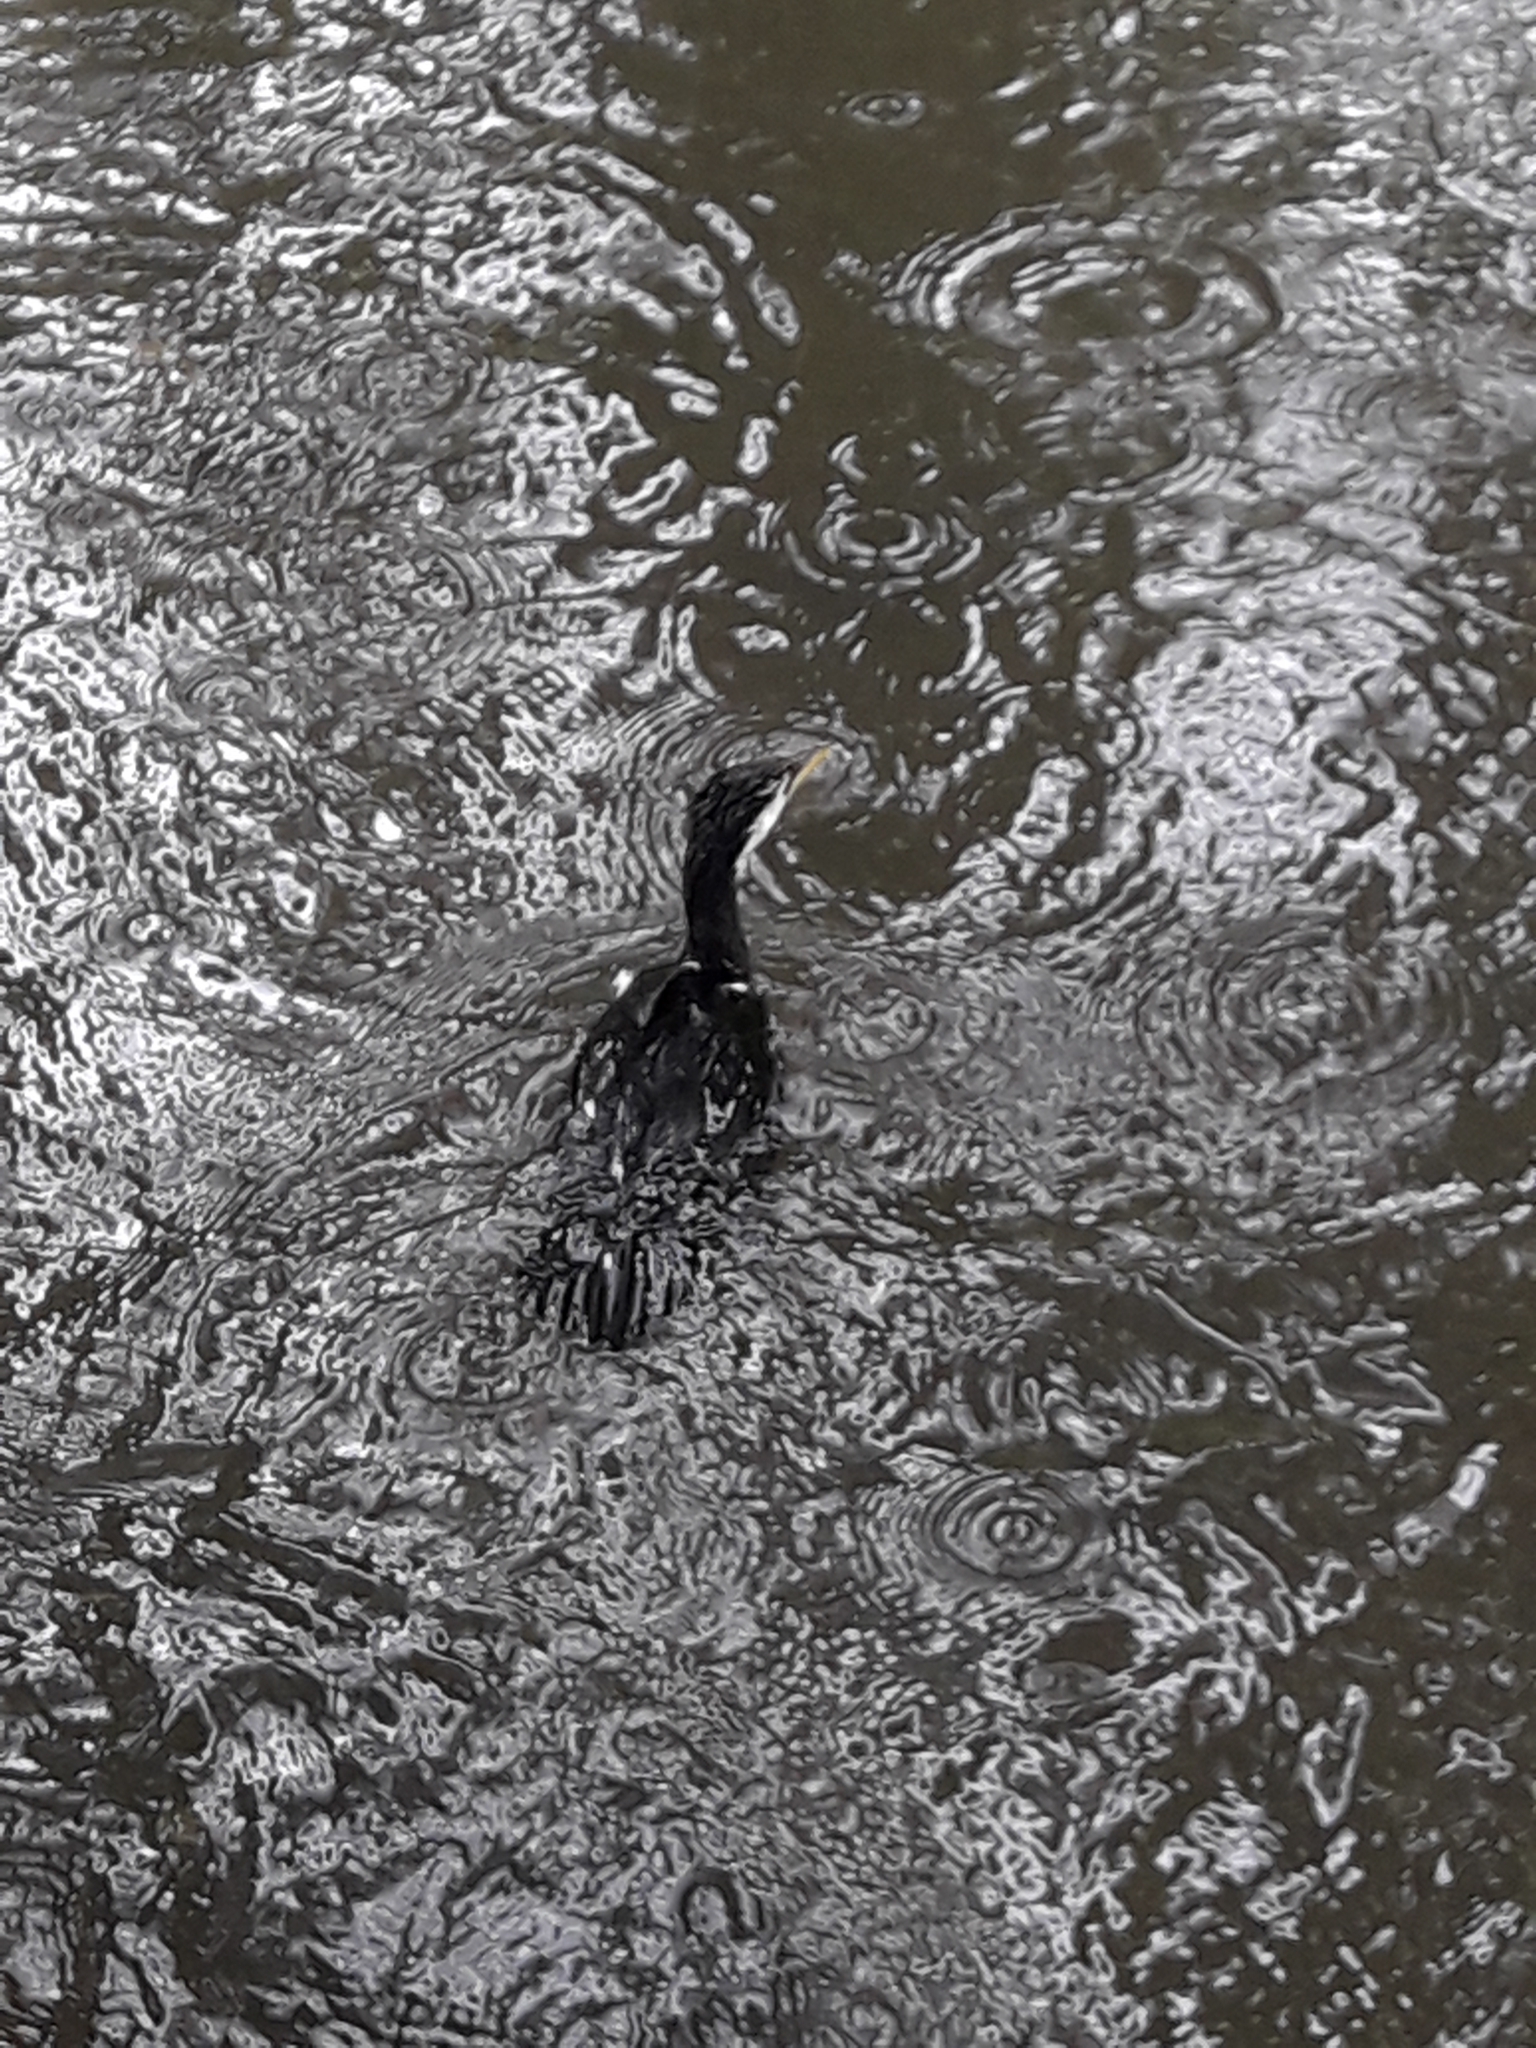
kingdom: Animalia
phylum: Chordata
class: Aves
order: Suliformes
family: Phalacrocoracidae
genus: Microcarbo
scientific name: Microcarbo melanoleucos
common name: Little pied cormorant
